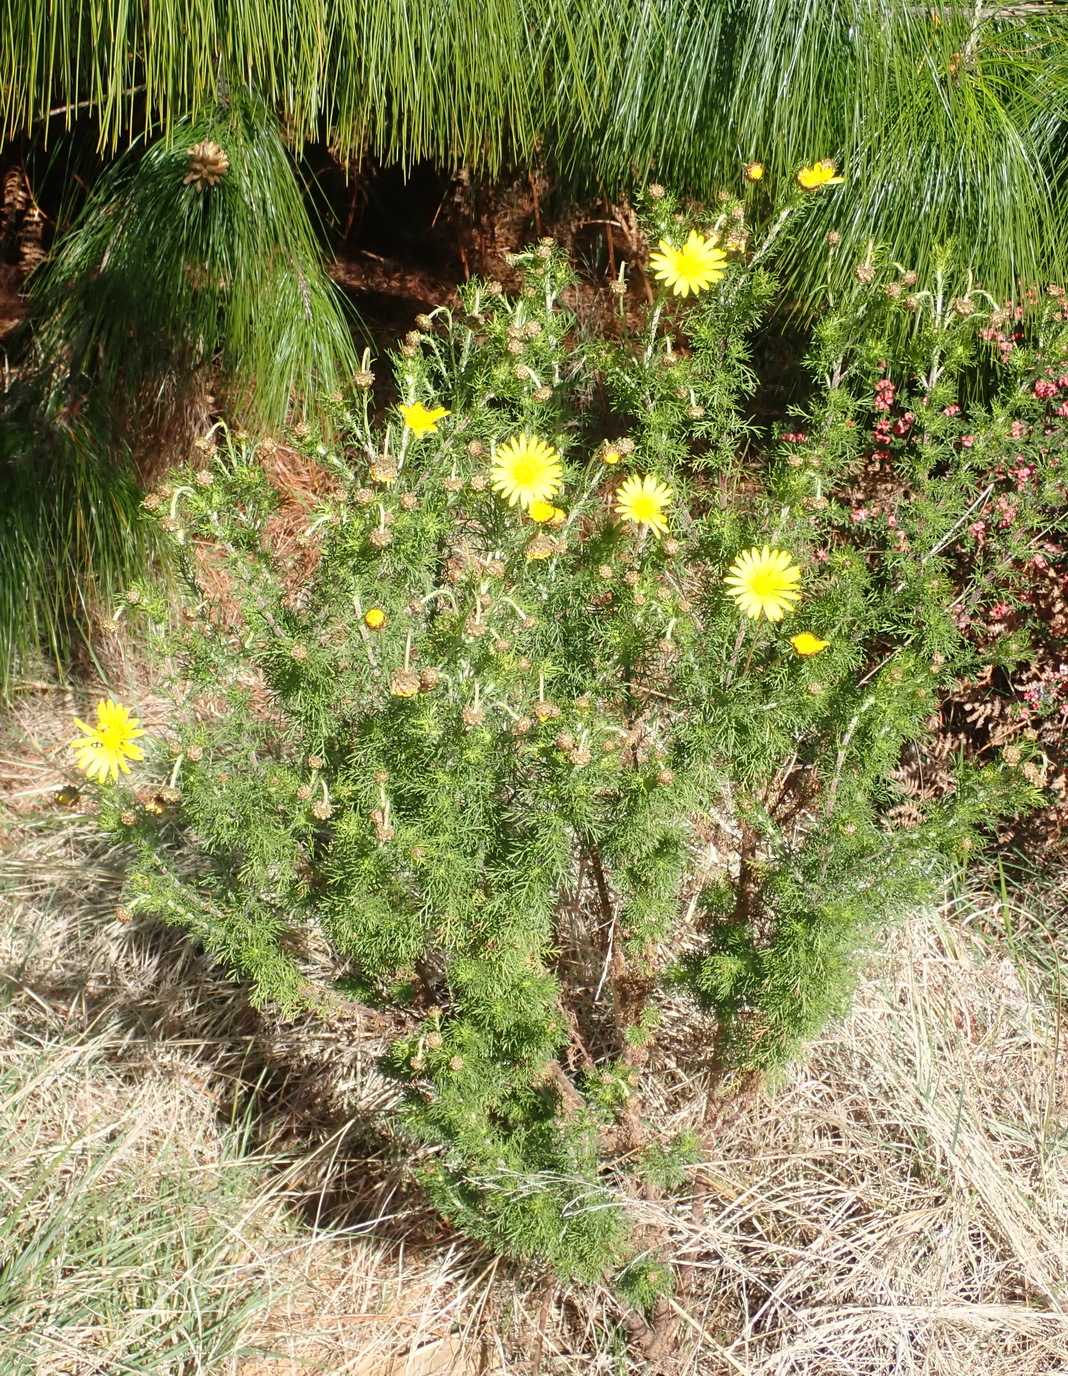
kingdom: Plantae
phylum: Tracheophyta
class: Magnoliopsida
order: Asterales
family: Asteraceae
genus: Ursinia
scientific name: Ursinia scariosa
